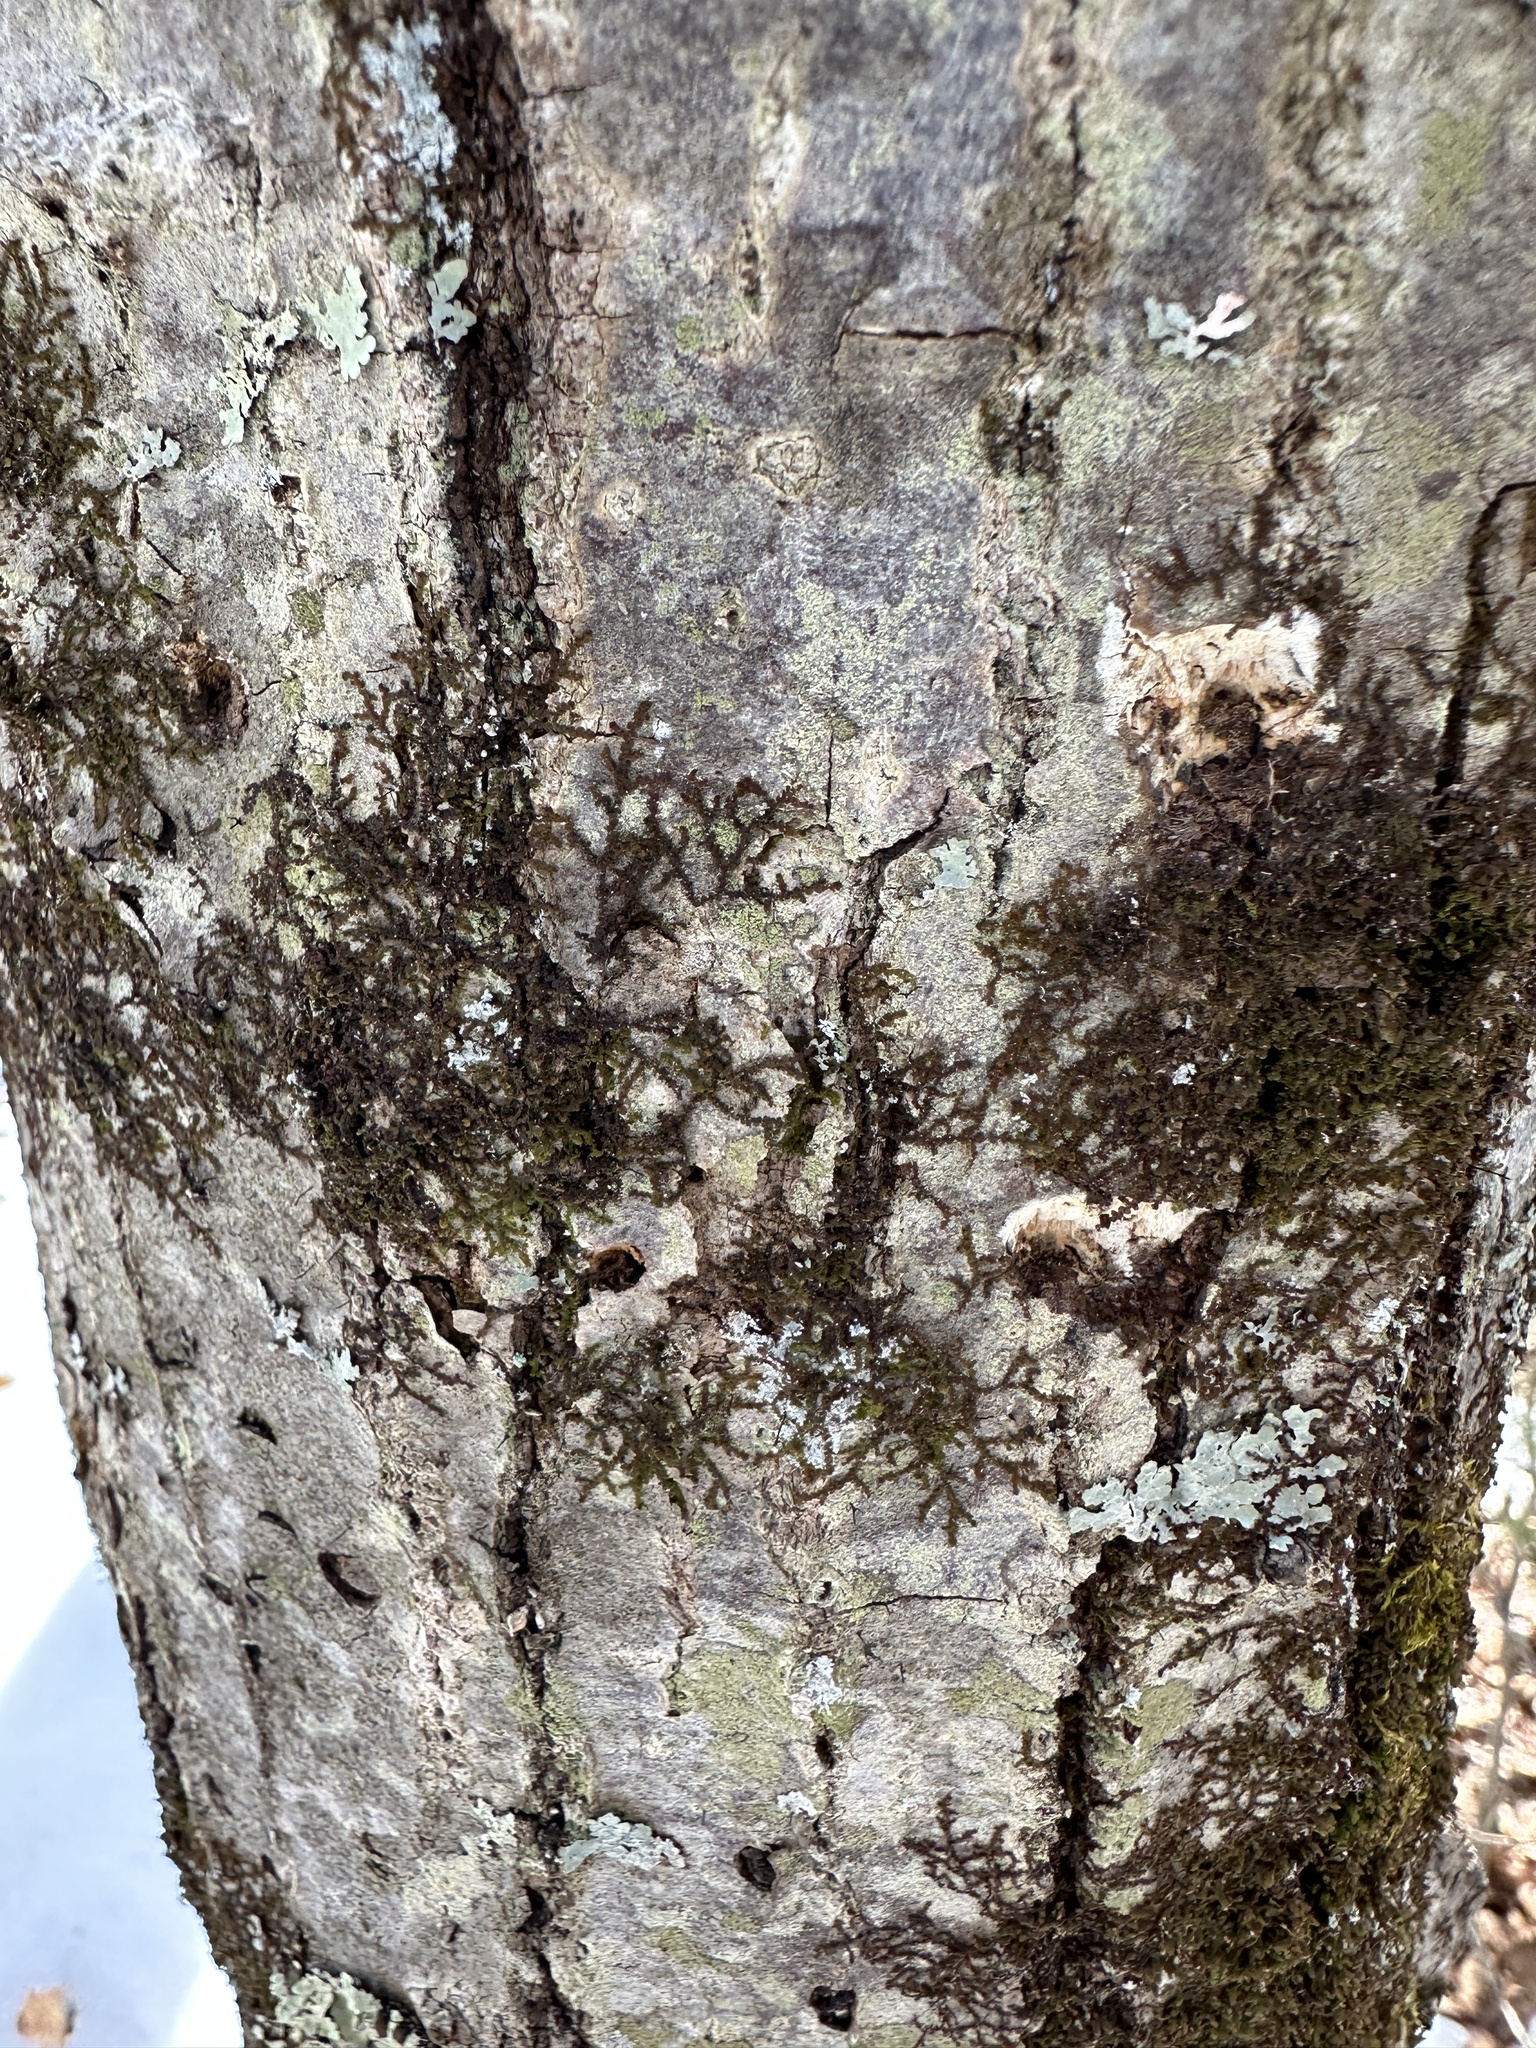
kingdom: Plantae
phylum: Marchantiophyta
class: Jungermanniopsida
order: Porellales
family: Frullaniaceae
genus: Frullania
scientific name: Frullania eboracensis
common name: New york scalewort
